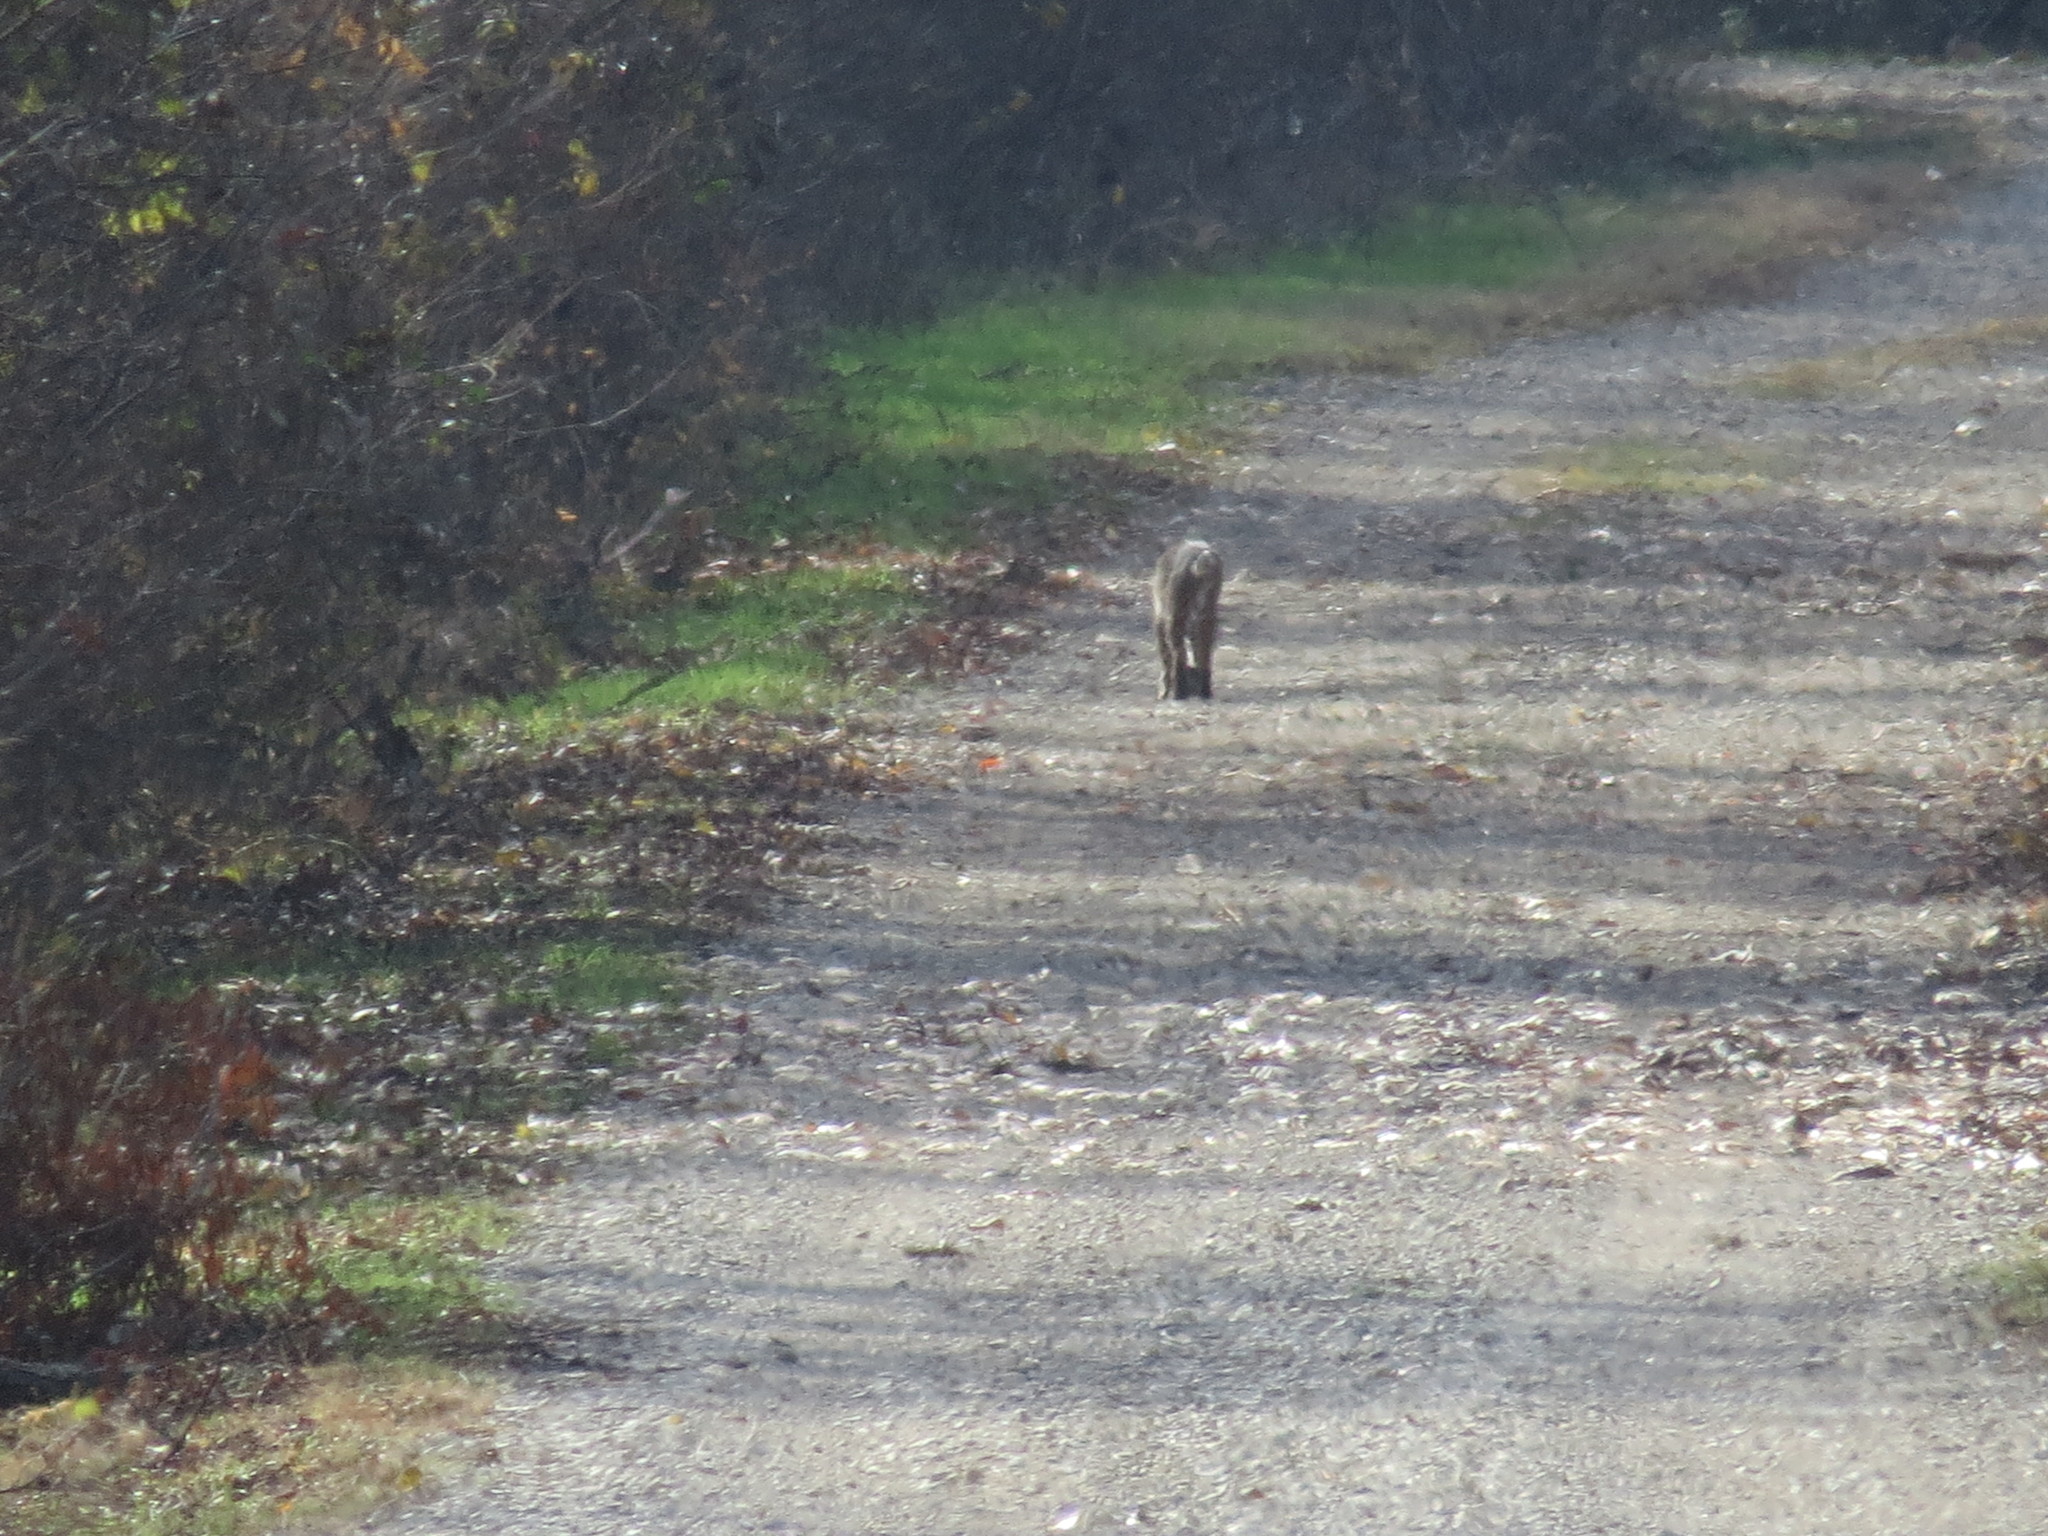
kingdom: Animalia
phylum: Chordata
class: Mammalia
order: Carnivora
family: Felidae
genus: Lynx
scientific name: Lynx rufus
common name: Bobcat
